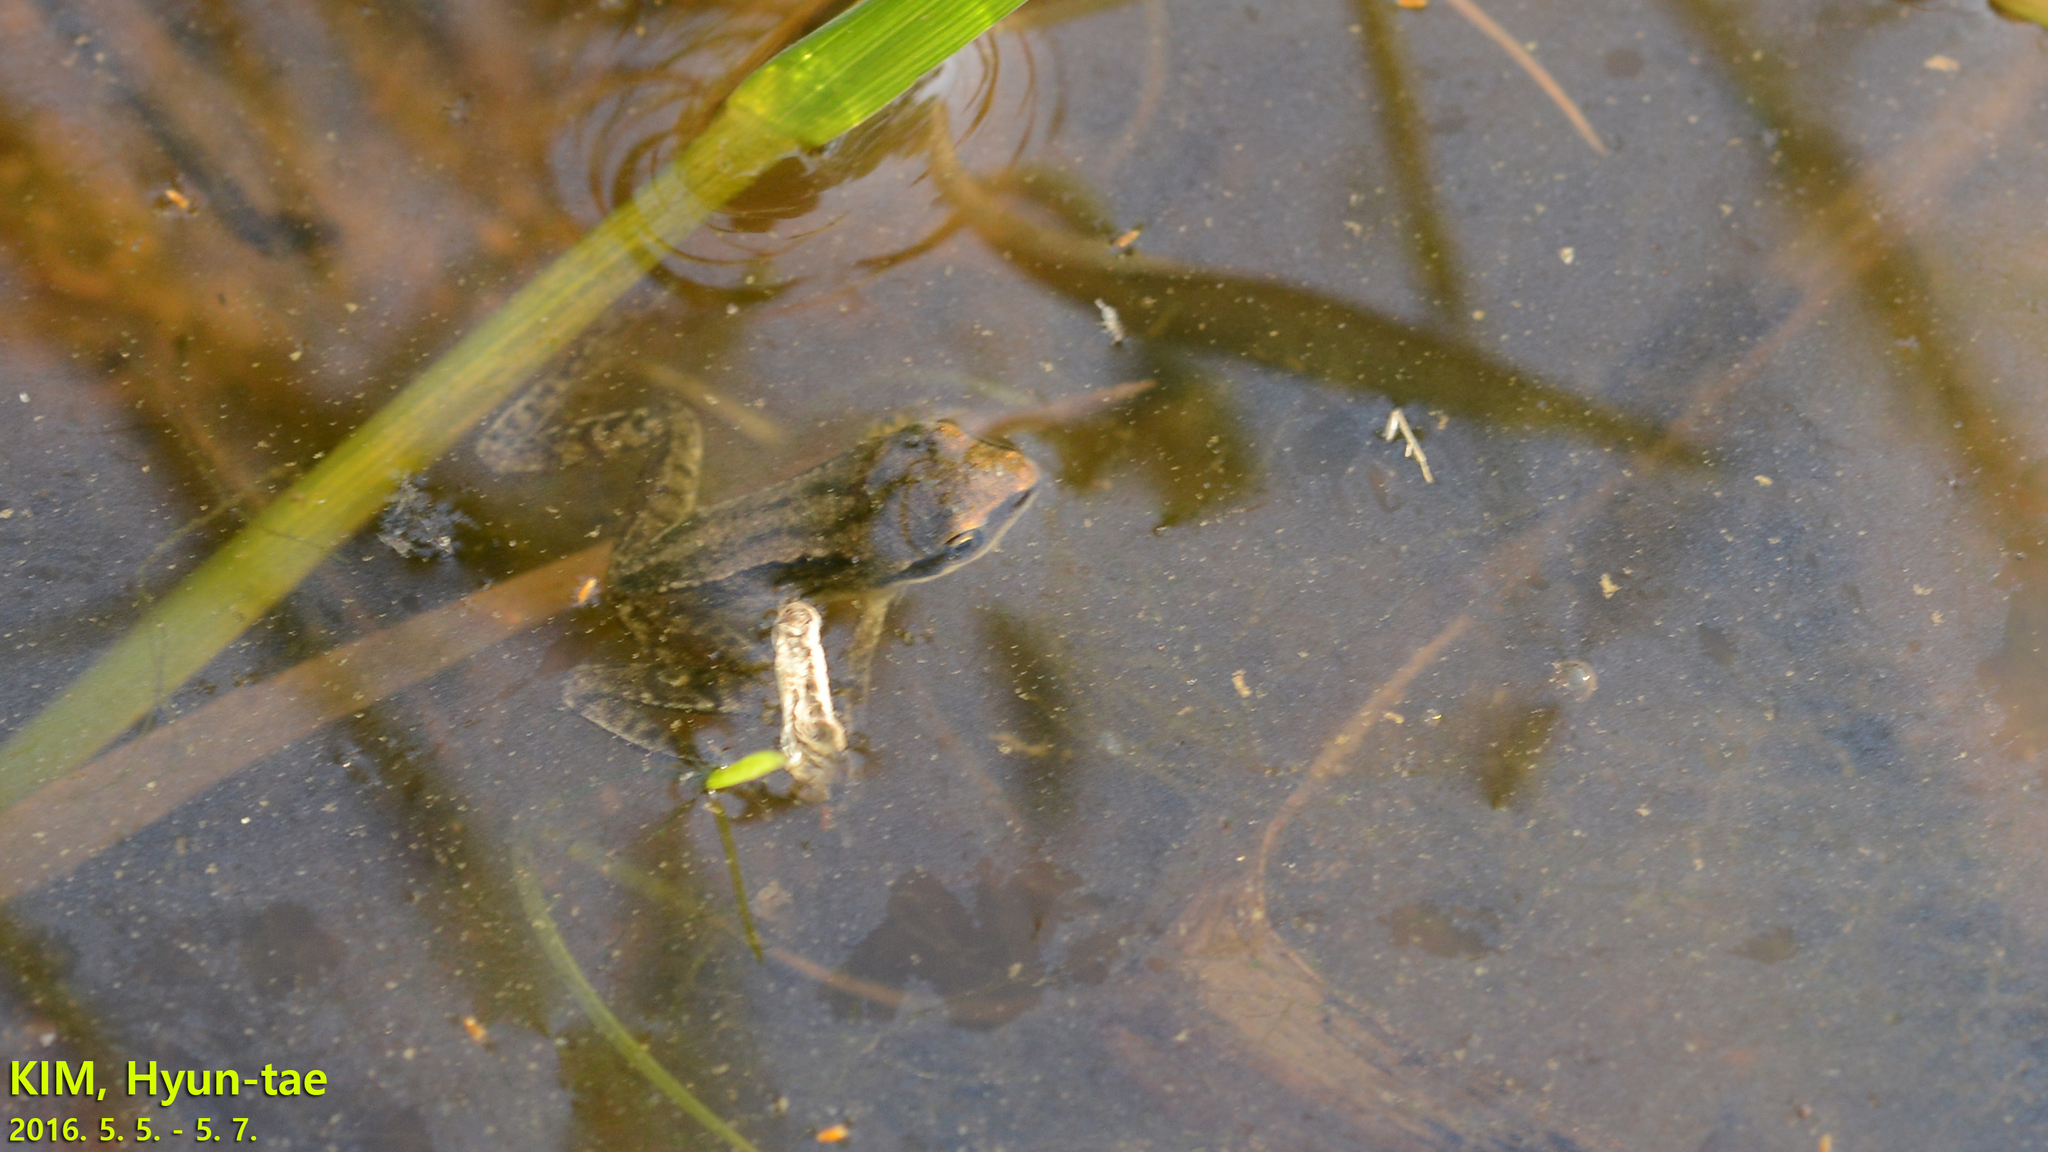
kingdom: Animalia
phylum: Chordata
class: Amphibia
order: Anura
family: Ranidae
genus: Rana
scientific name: Rana coreana
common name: Korean brown frog
